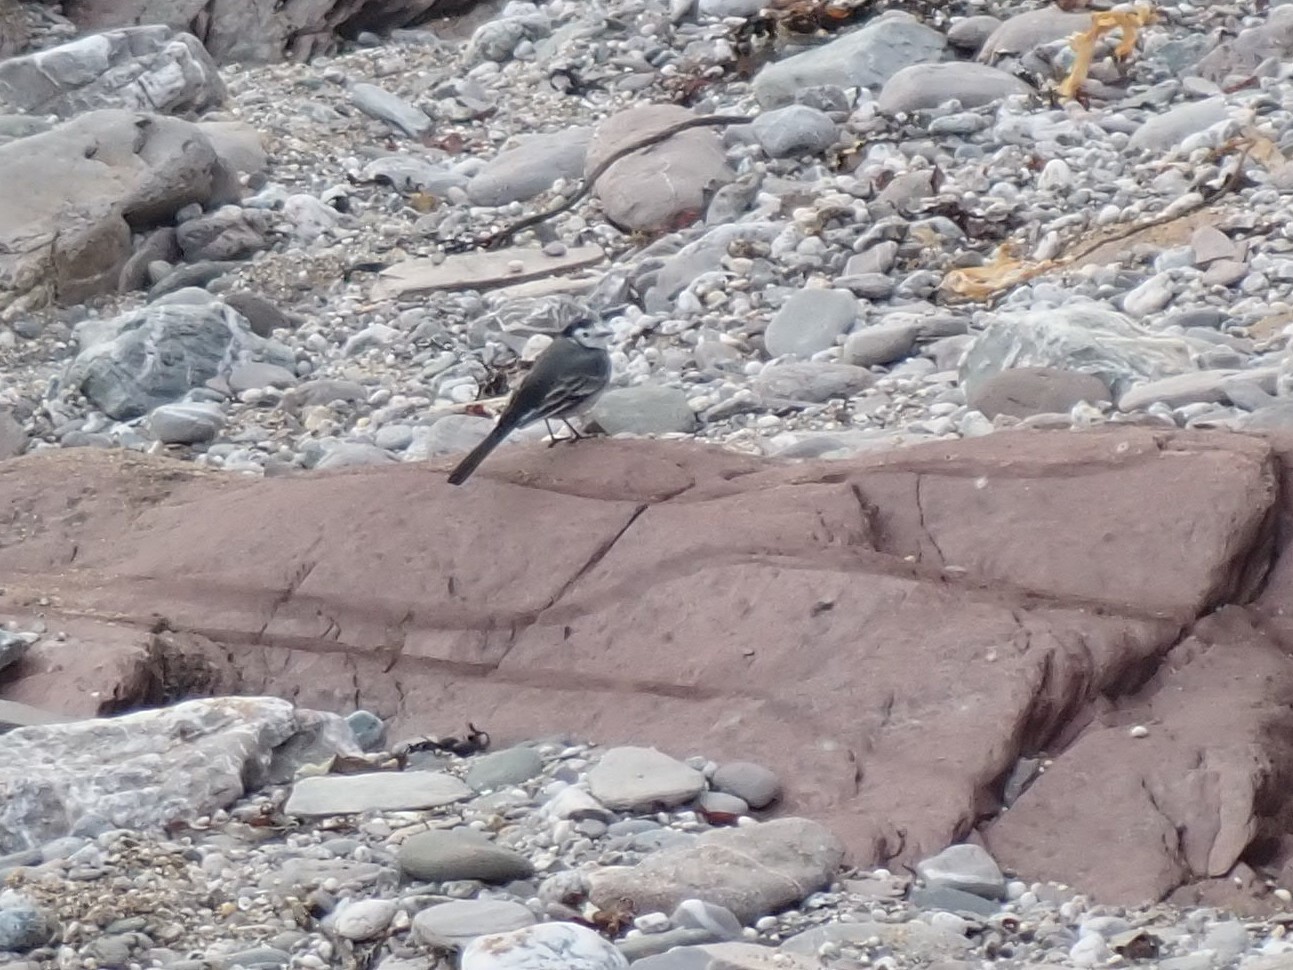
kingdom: Animalia
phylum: Chordata
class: Aves
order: Passeriformes
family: Motacillidae
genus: Motacilla
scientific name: Motacilla alba
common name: White wagtail
